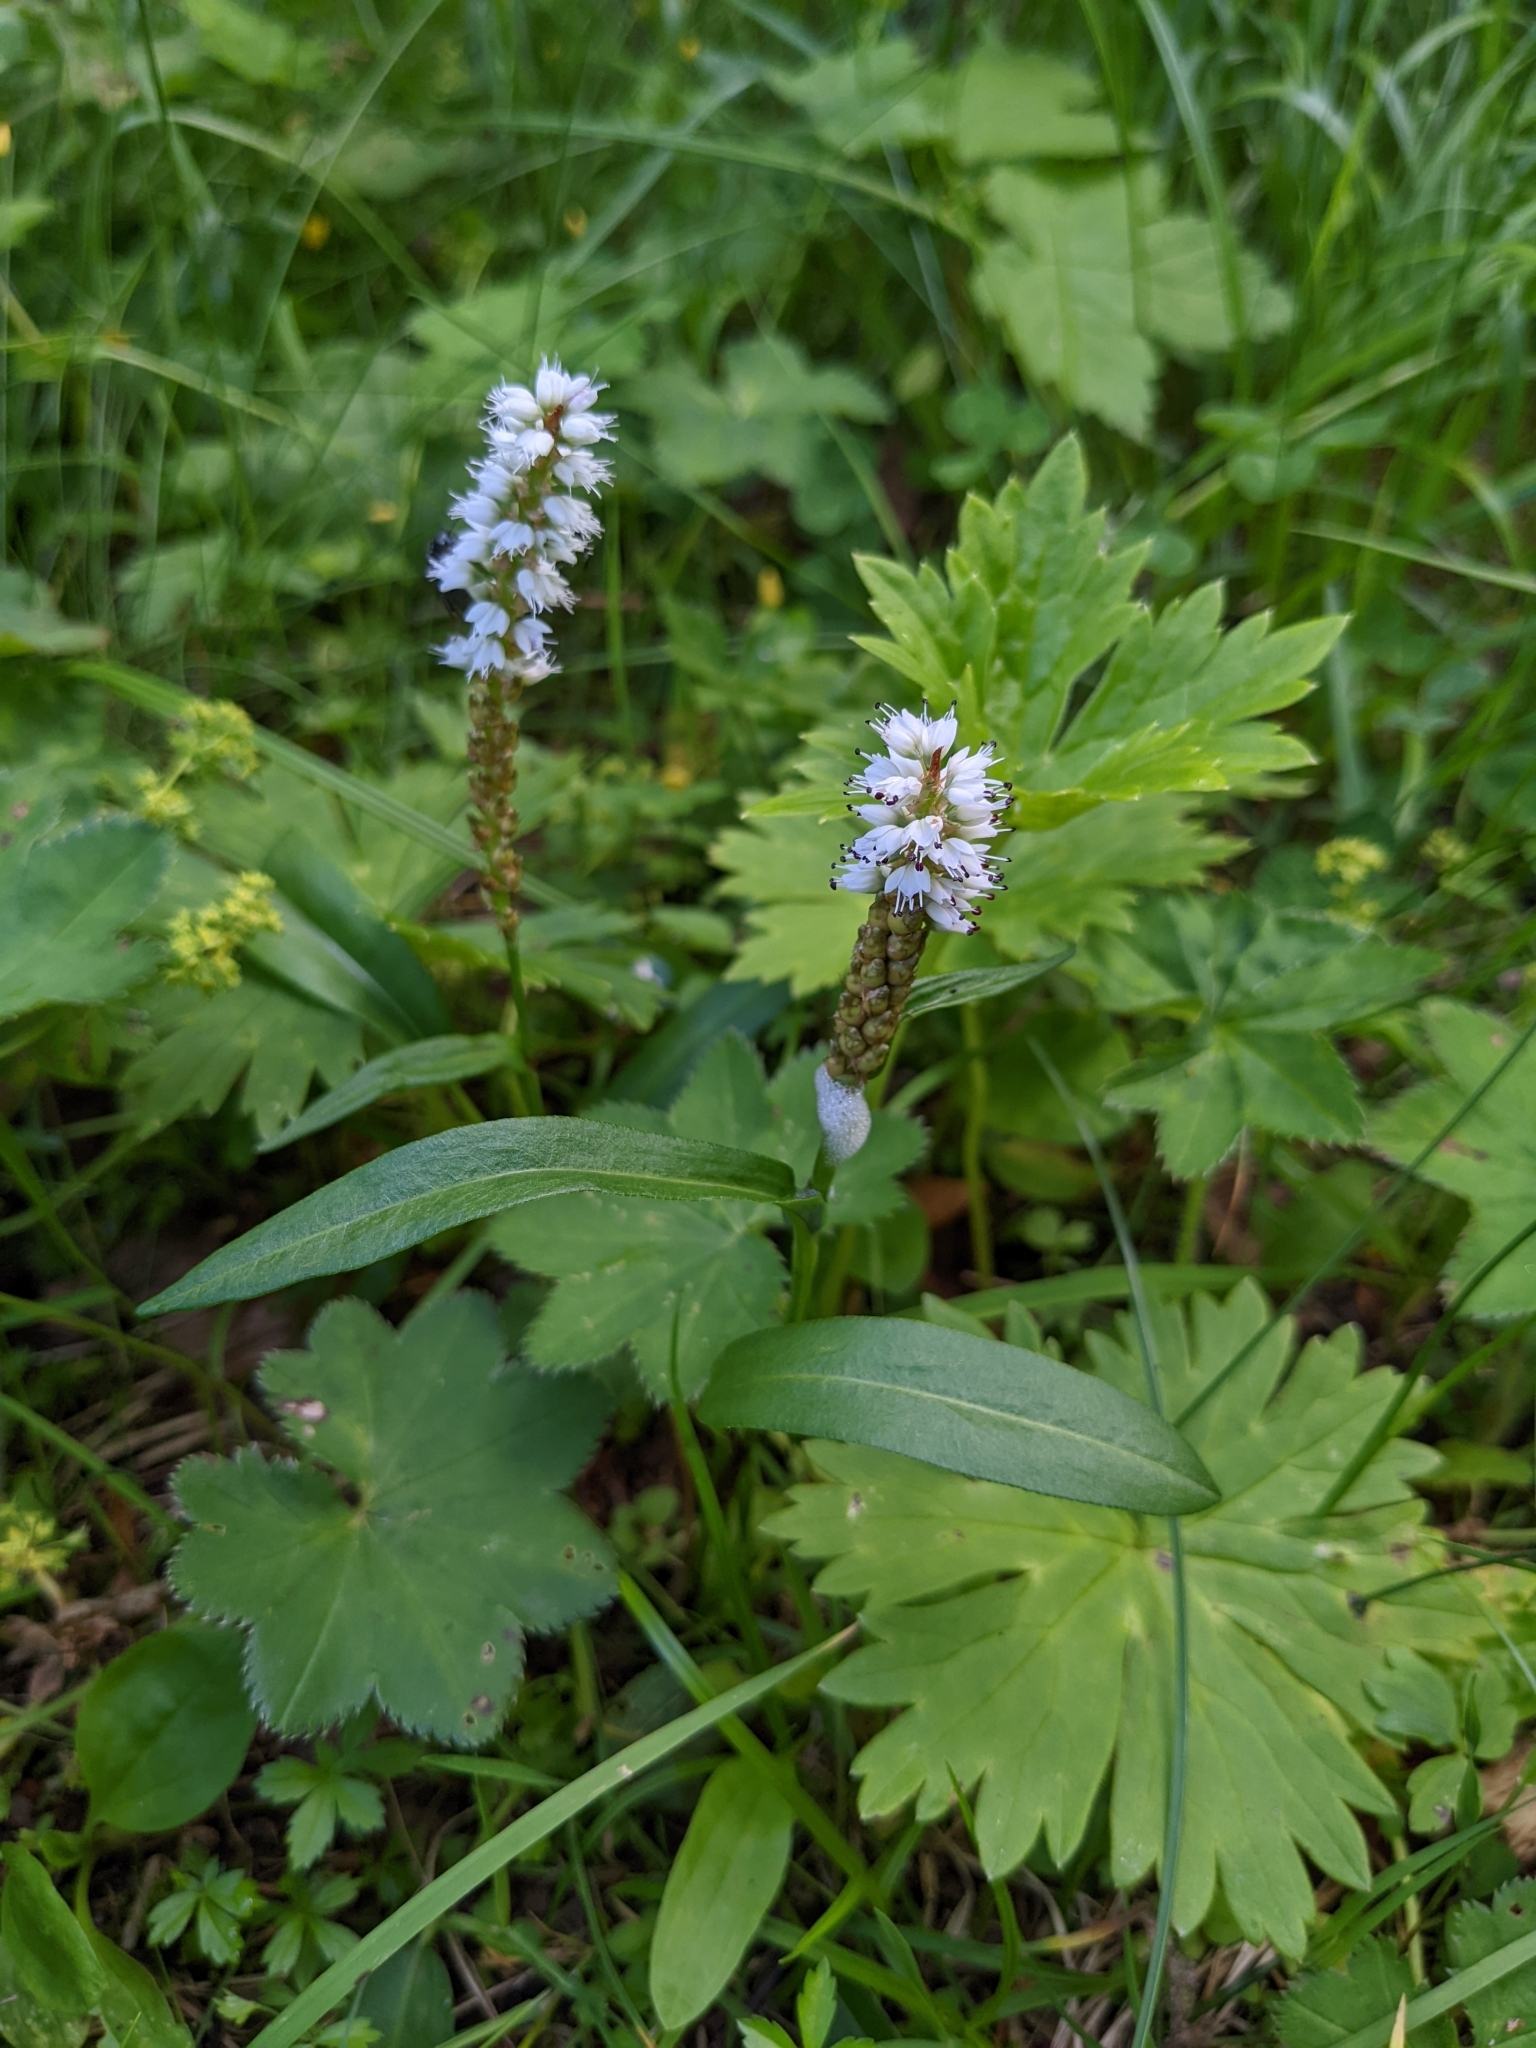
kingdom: Plantae
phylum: Tracheophyta
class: Magnoliopsida
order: Caryophyllales
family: Polygonaceae
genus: Bistorta
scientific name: Bistorta vivipara
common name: Alpine bistort
